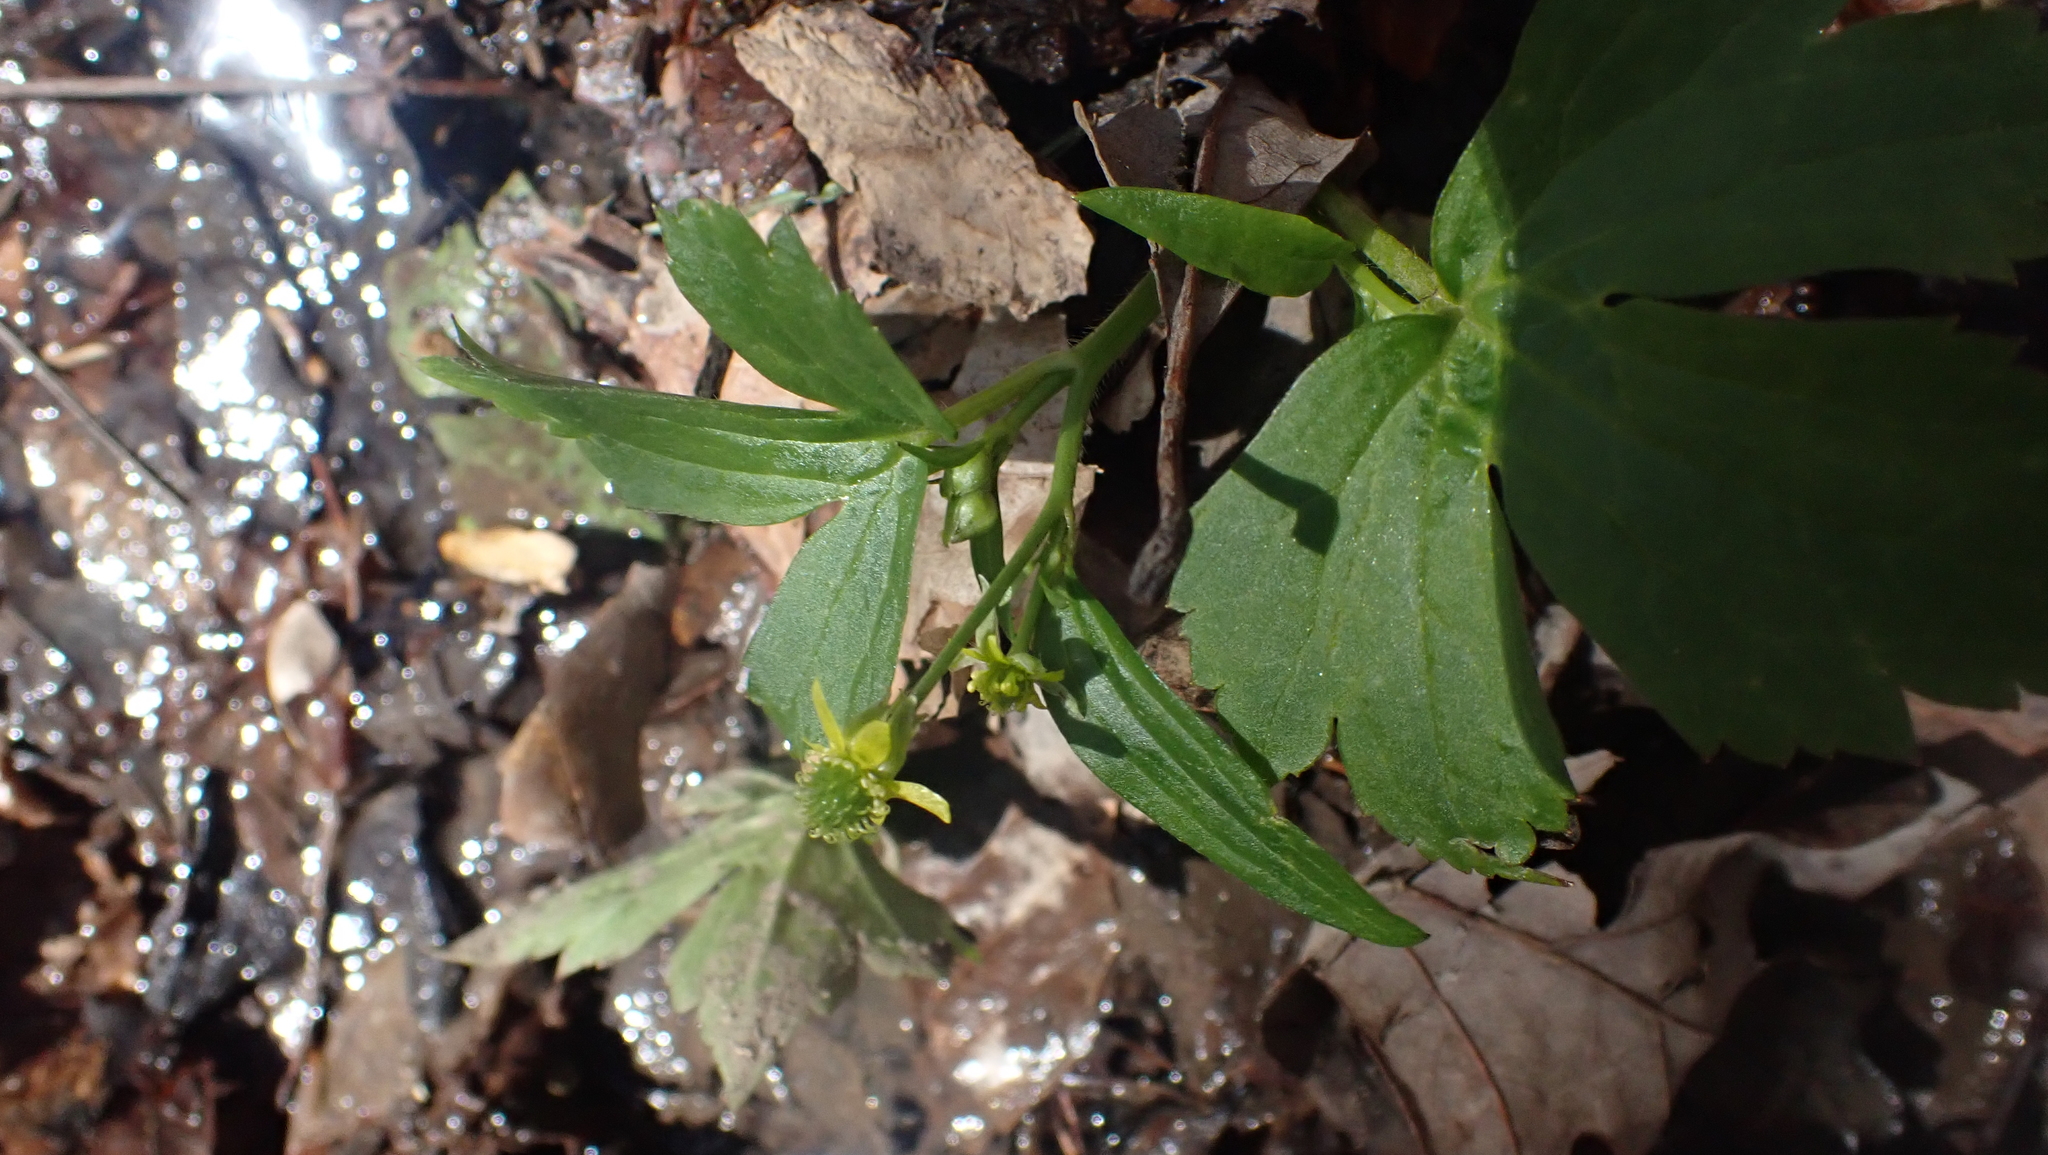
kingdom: Plantae
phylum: Tracheophyta
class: Magnoliopsida
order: Ranunculales
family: Ranunculaceae
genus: Ranunculus
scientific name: Ranunculus recurvatus
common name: Blisterwort
